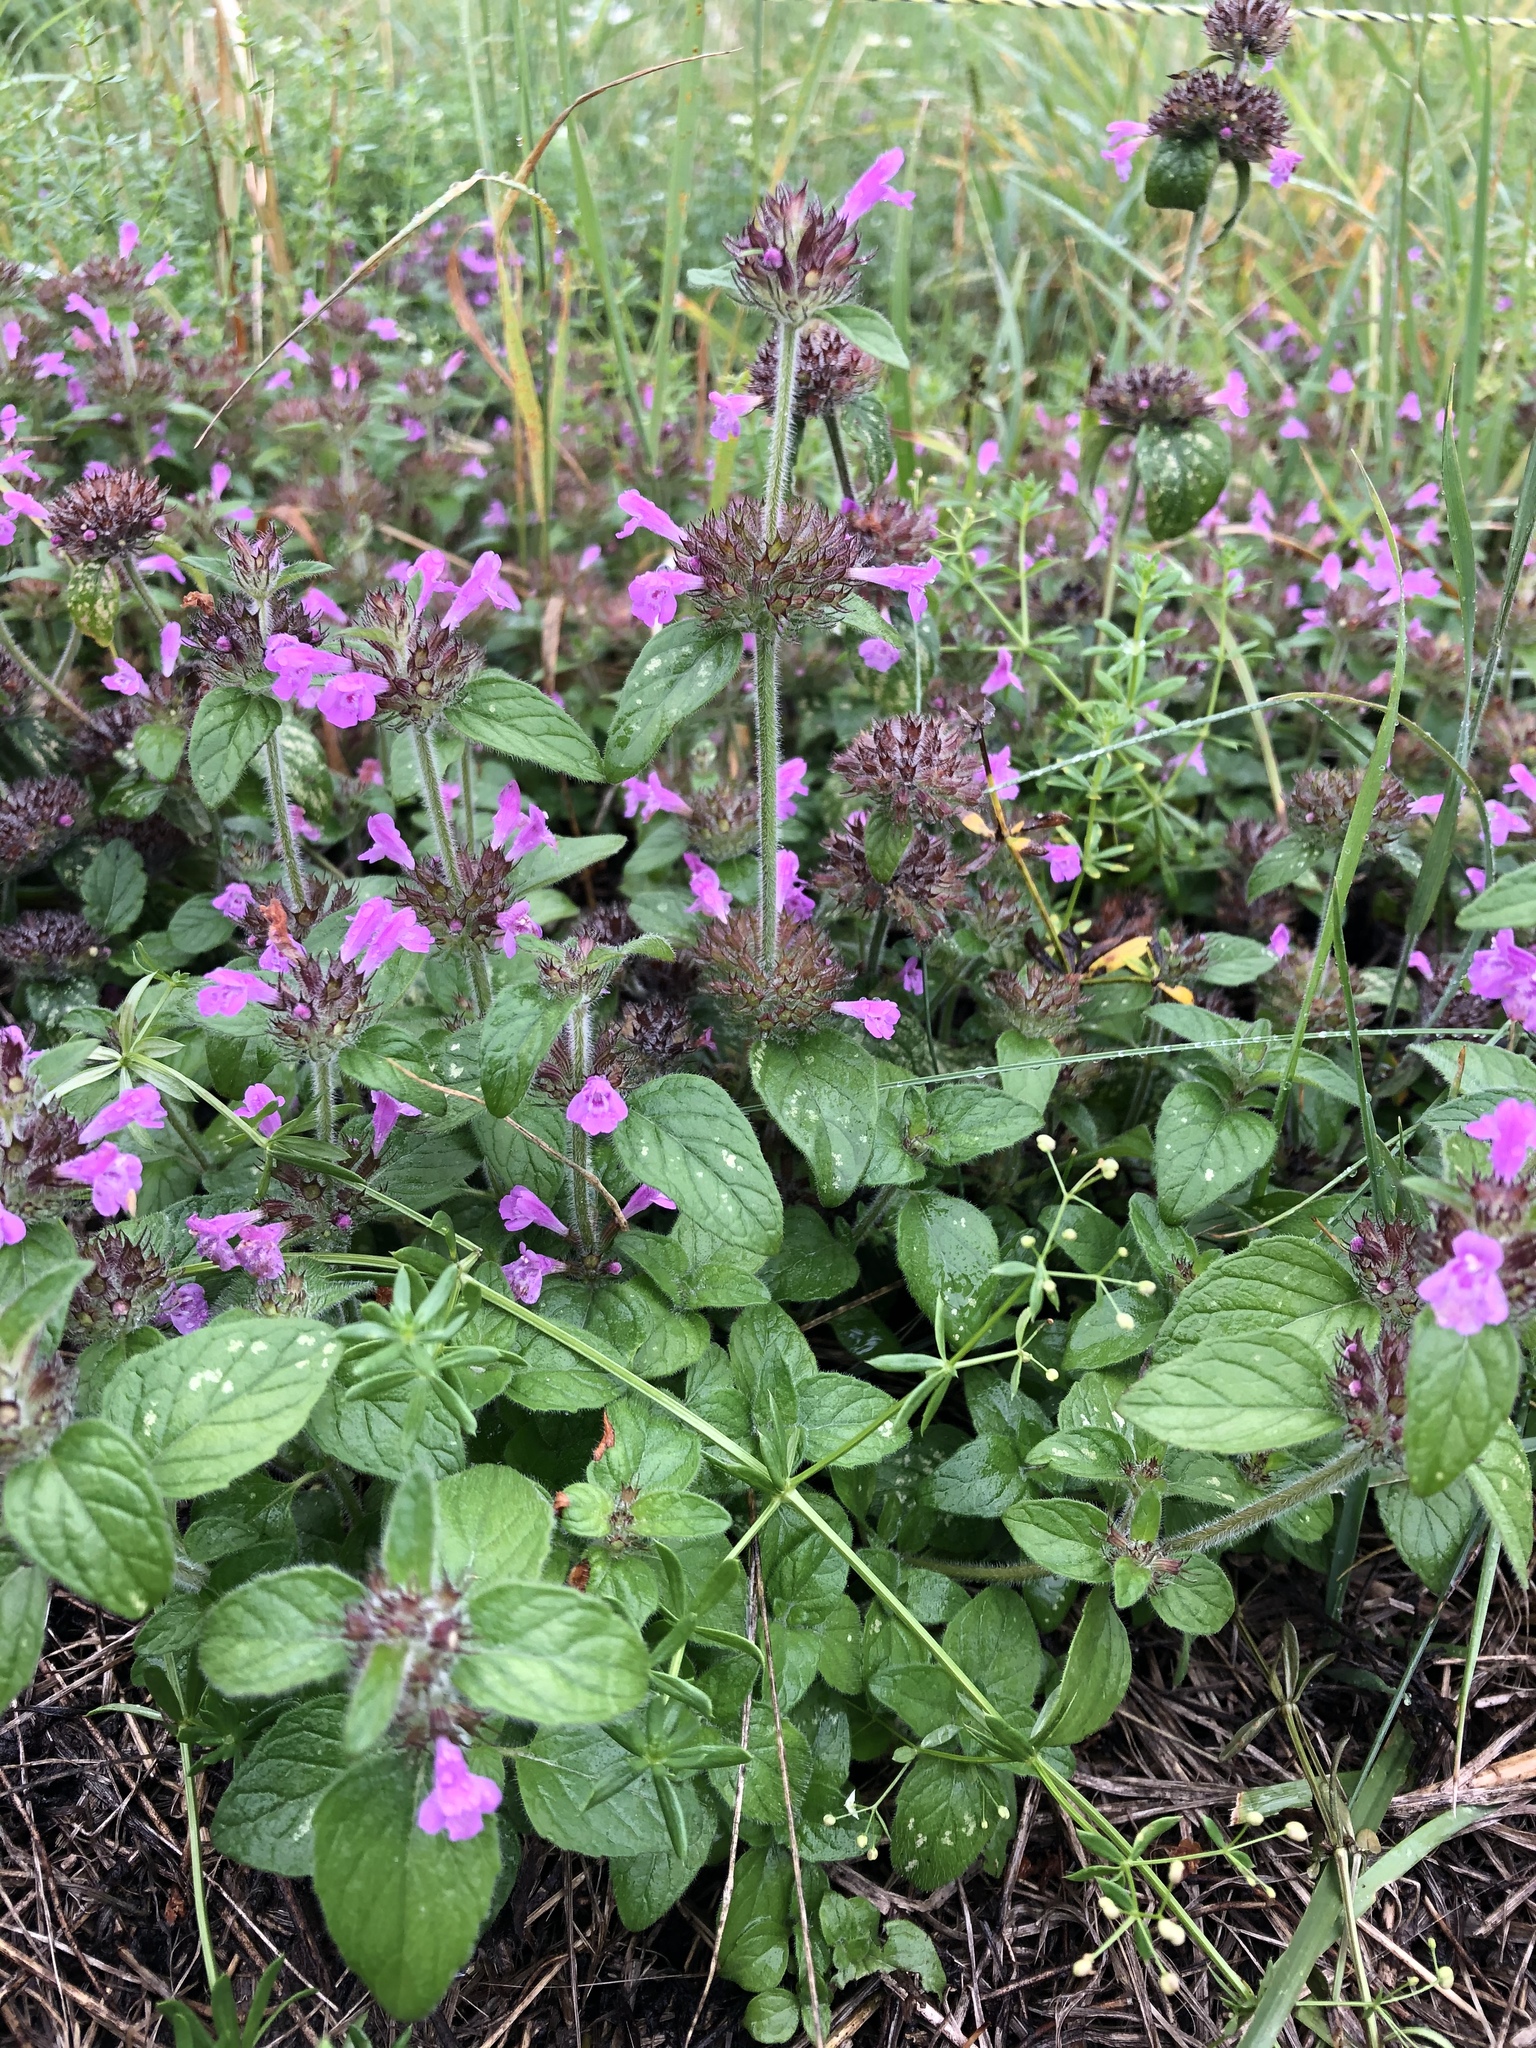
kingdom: Plantae
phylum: Tracheophyta
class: Magnoliopsida
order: Lamiales
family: Lamiaceae
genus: Clinopodium
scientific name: Clinopodium vulgare
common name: Wild basil
